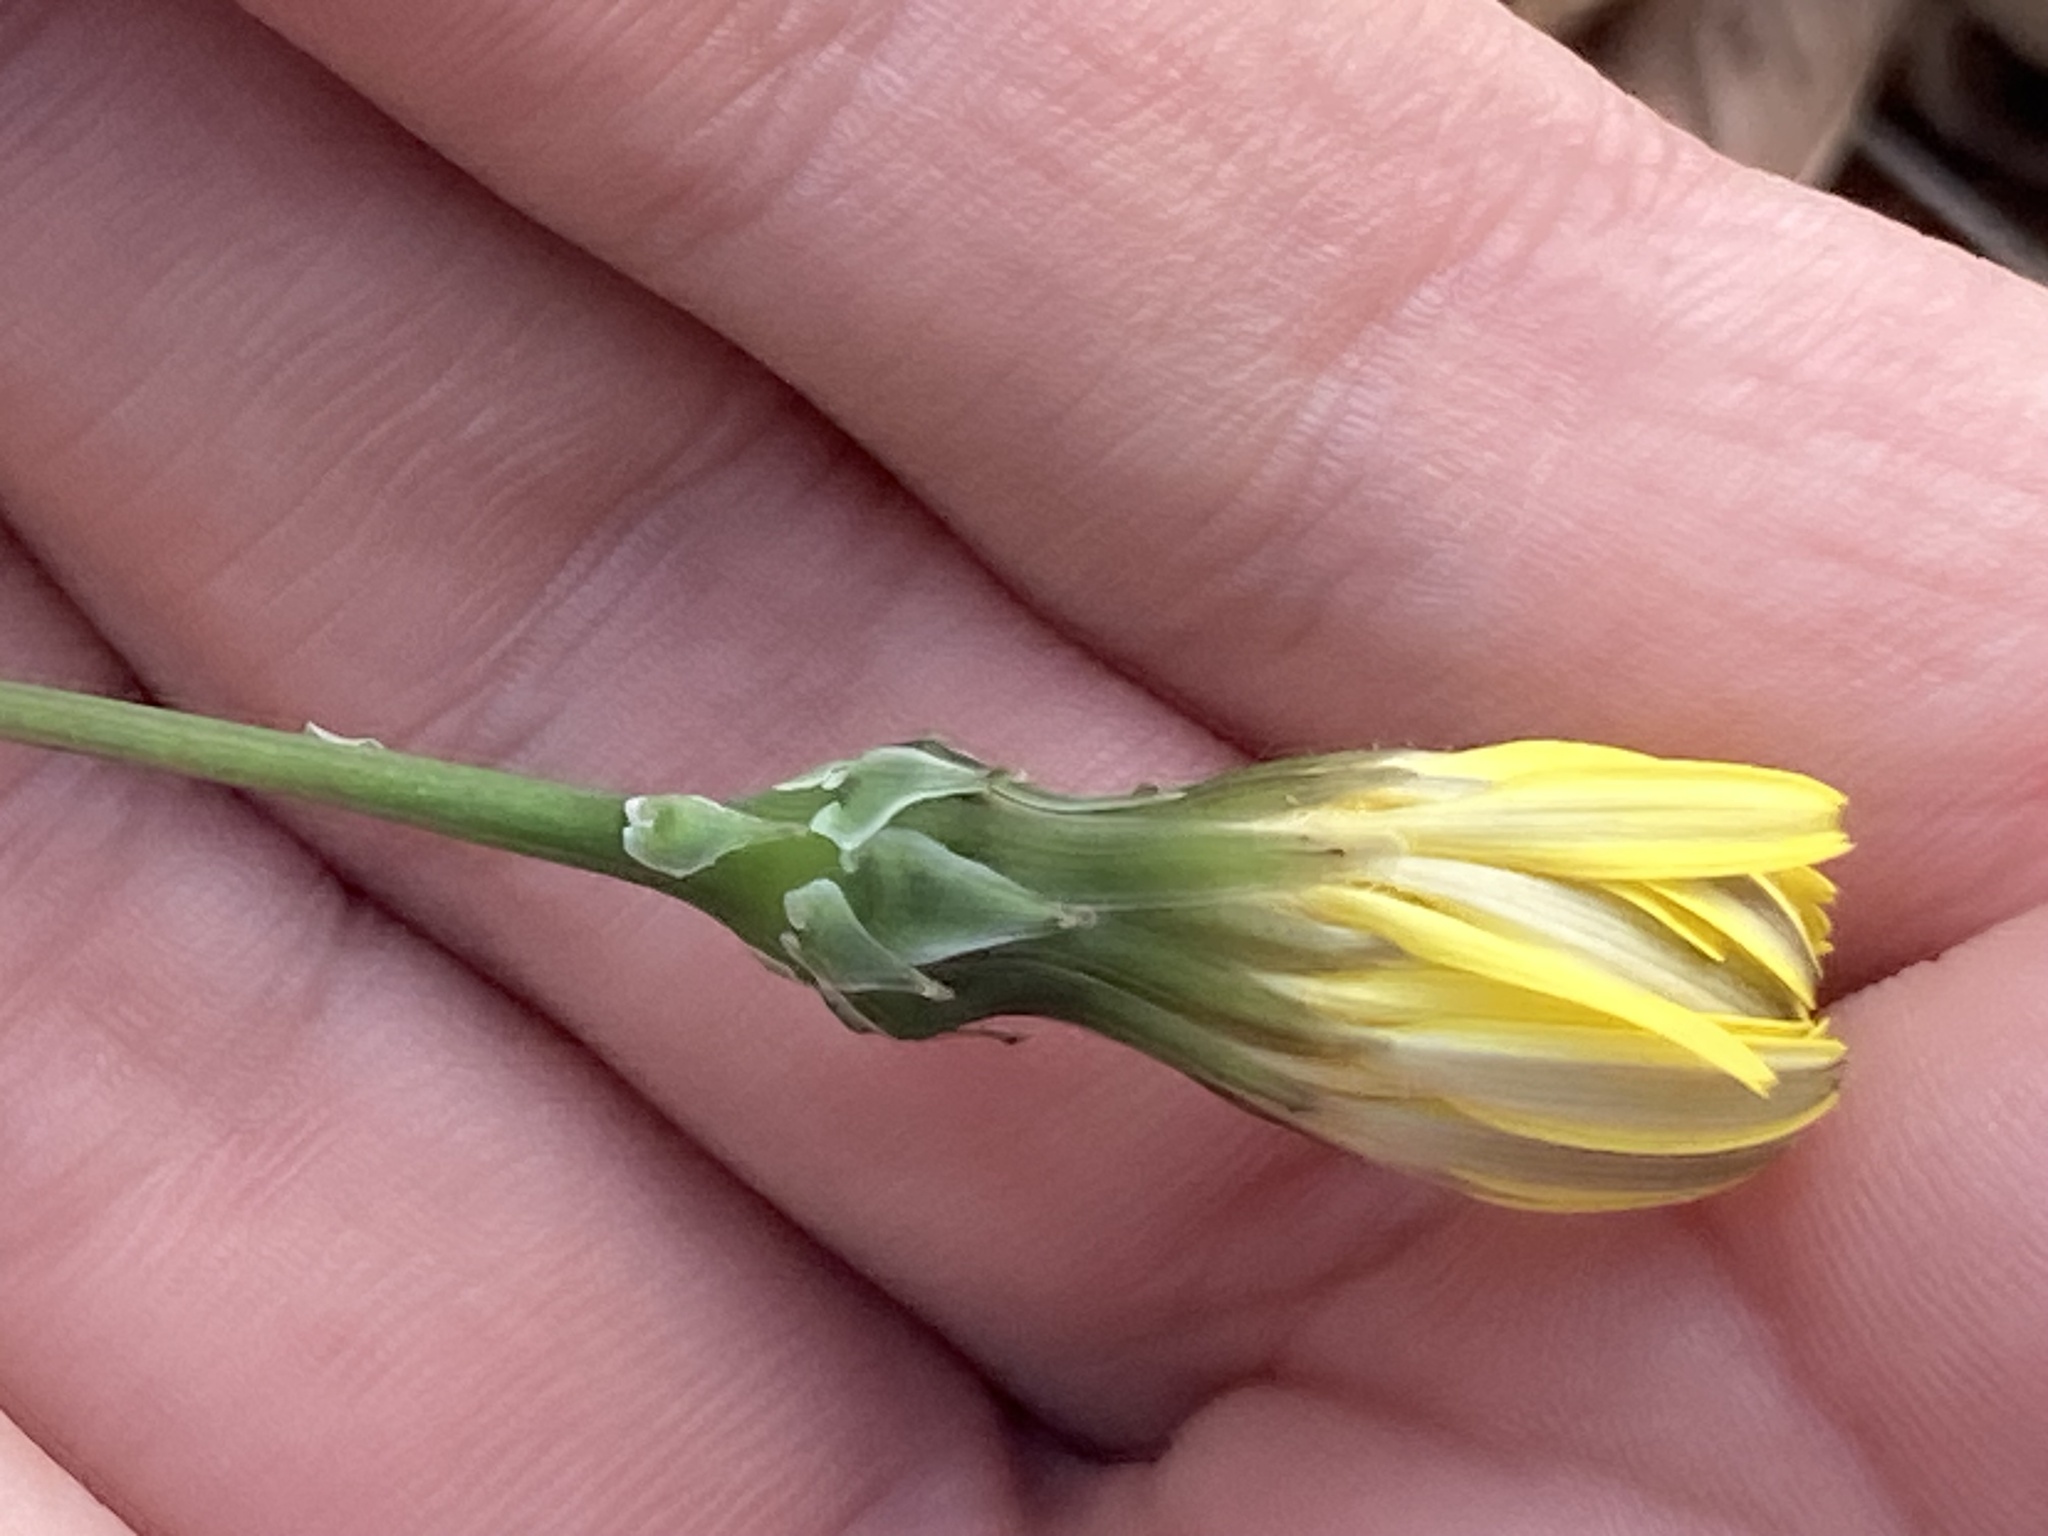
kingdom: Plantae
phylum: Tracheophyta
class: Magnoliopsida
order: Asterales
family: Asteraceae
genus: Reichardia
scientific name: Reichardia picroides
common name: Common brighteyes
